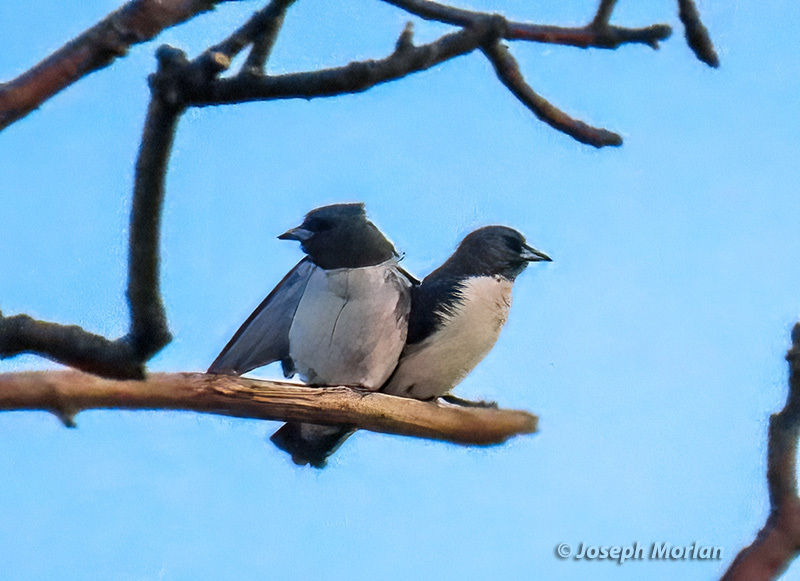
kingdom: Animalia
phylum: Chordata
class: Aves
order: Passeriformes
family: Artamidae
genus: Artamus
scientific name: Artamus leucoryn
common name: White-breasted woodswallow
